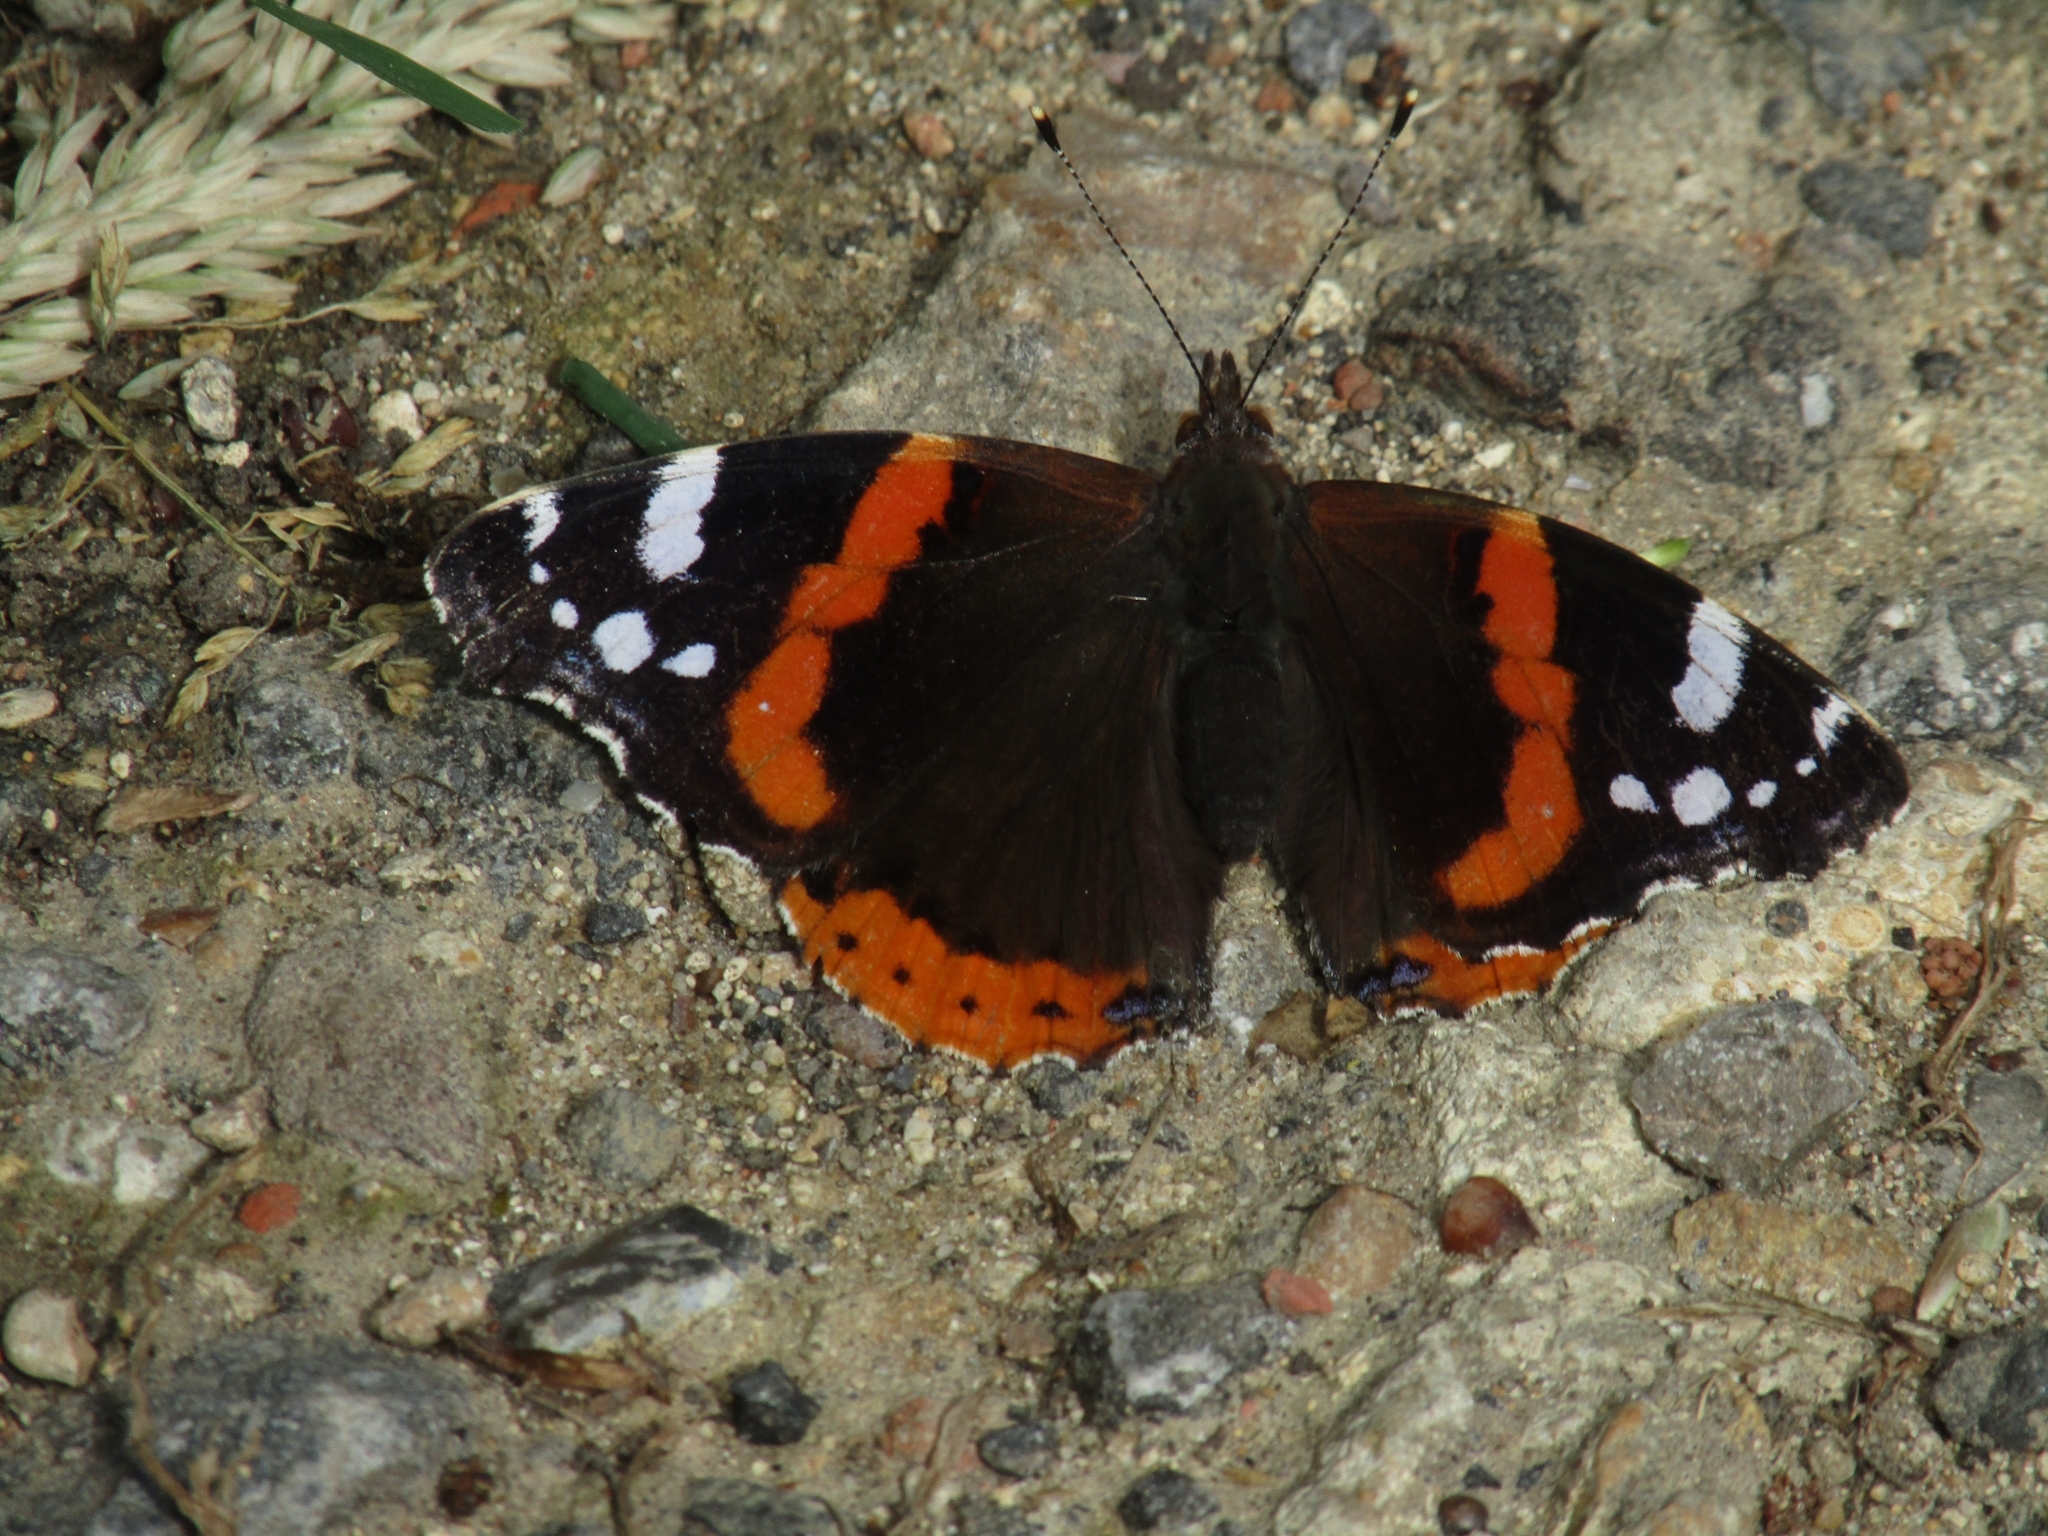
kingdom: Animalia
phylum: Arthropoda
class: Insecta
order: Lepidoptera
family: Nymphalidae
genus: Vanessa
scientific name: Vanessa atalanta
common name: Red admiral
